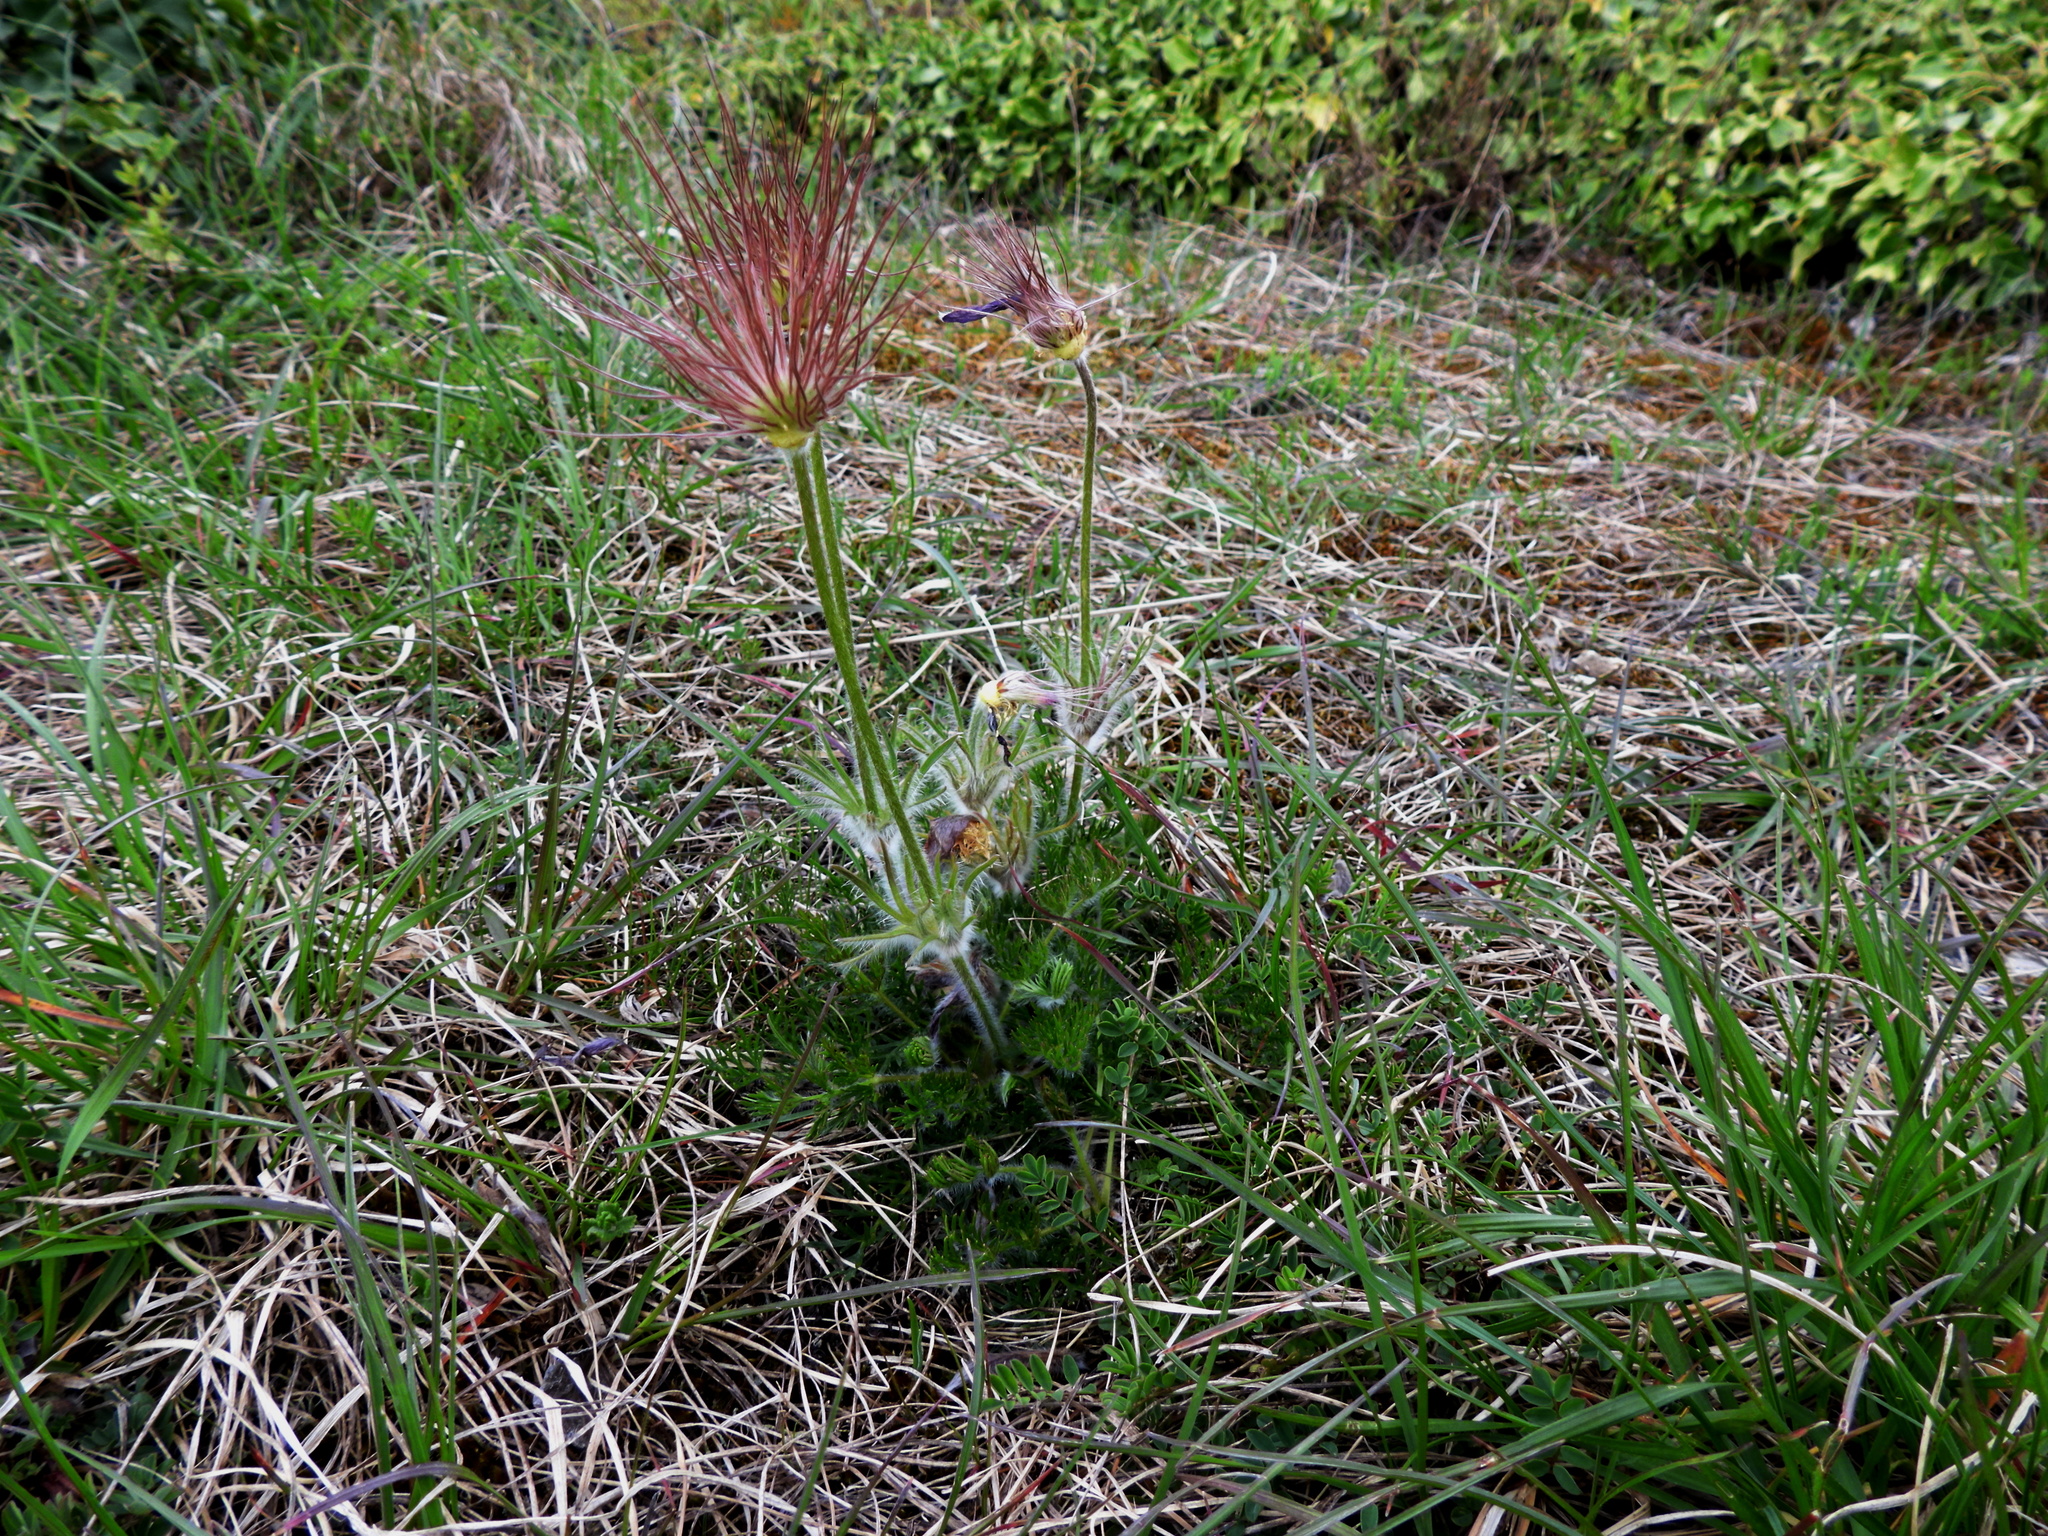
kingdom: Plantae
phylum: Tracheophyta
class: Magnoliopsida
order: Ranunculales
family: Ranunculaceae
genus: Pulsatilla
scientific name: Pulsatilla vulgaris
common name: Pasqueflower
